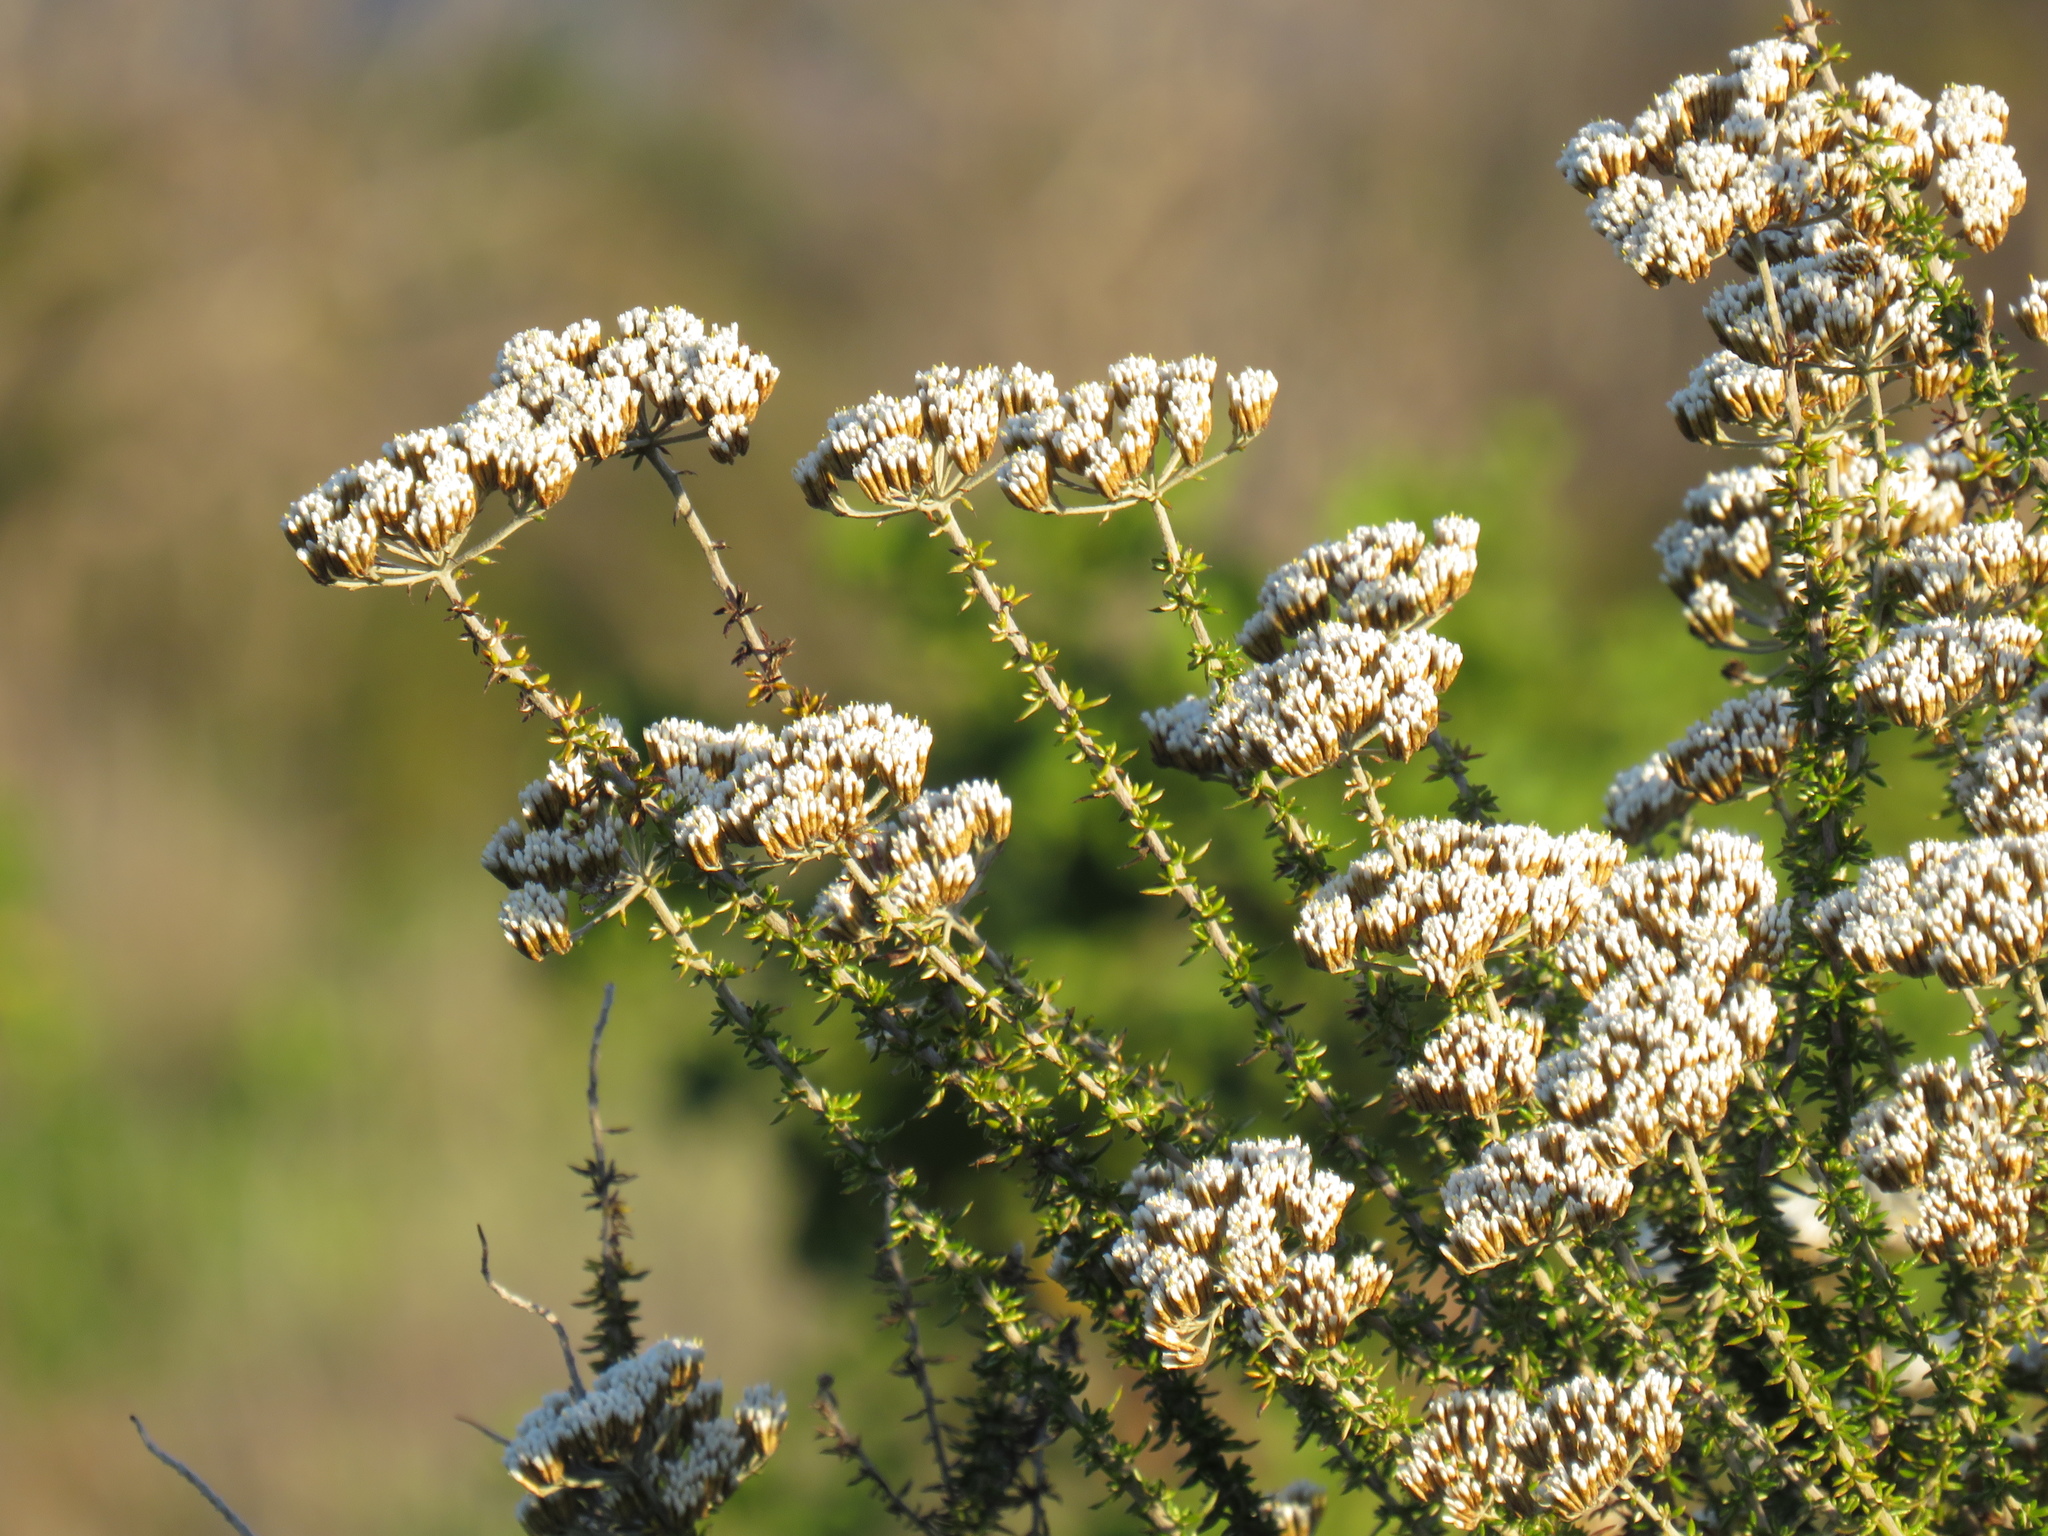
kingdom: Plantae
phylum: Tracheophyta
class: Magnoliopsida
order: Asterales
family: Asteraceae
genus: Metalasia
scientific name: Metalasia densa
